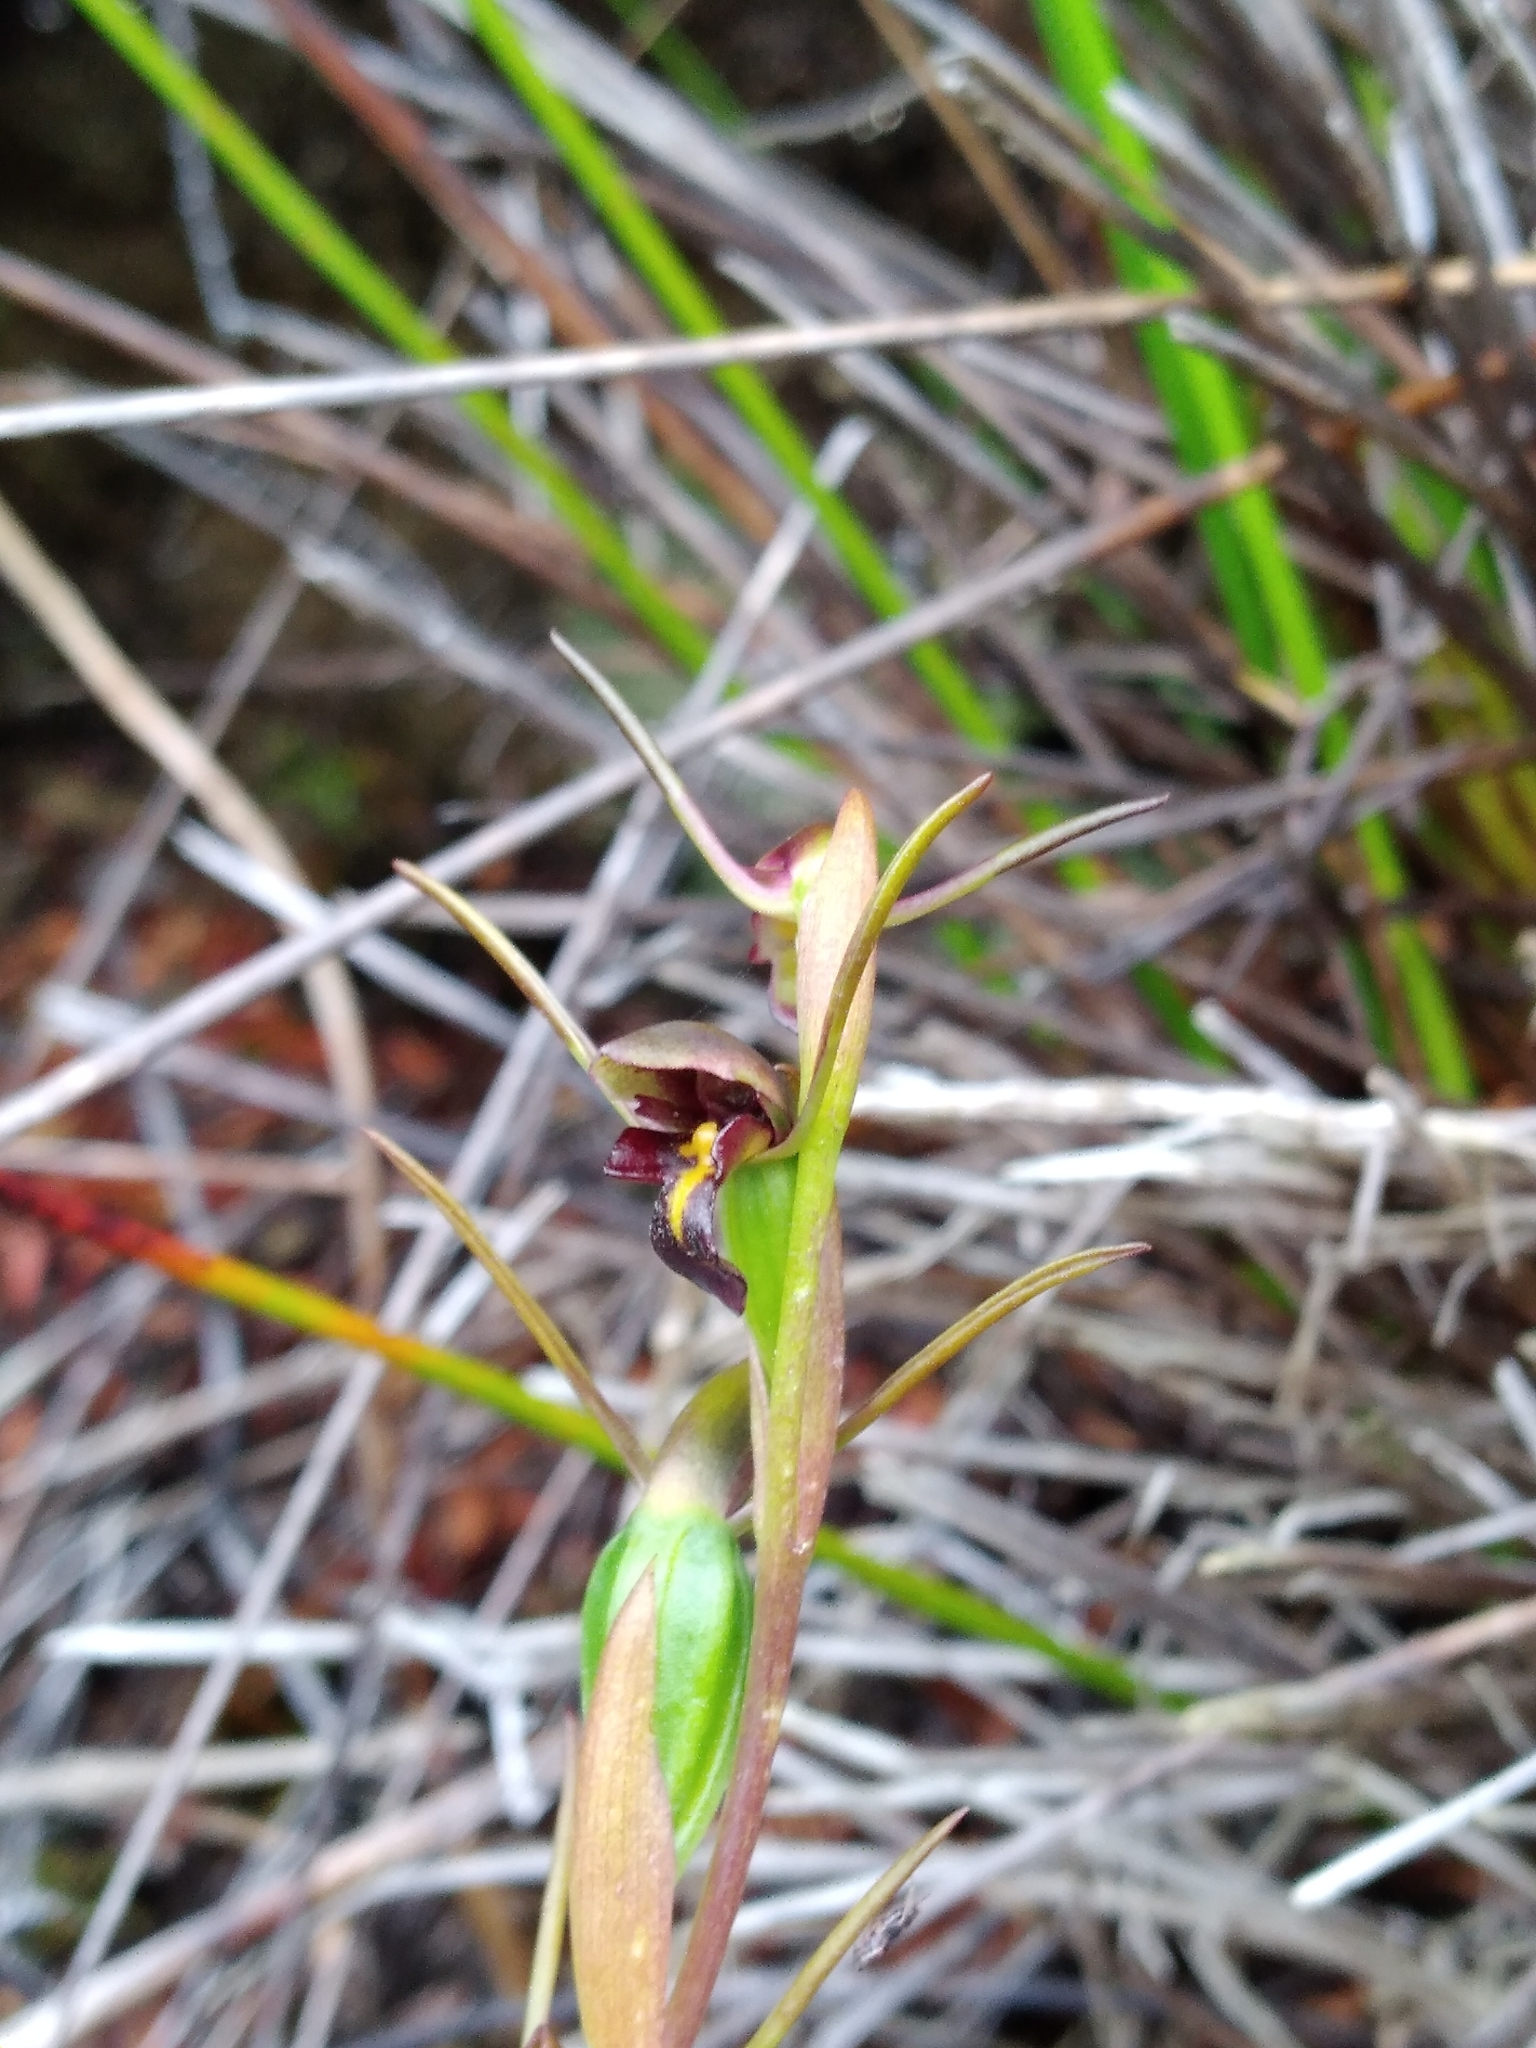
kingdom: Plantae
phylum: Tracheophyta
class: Liliopsida
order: Asparagales
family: Orchidaceae
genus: Orthoceras
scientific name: Orthoceras novae-zeelandiae
